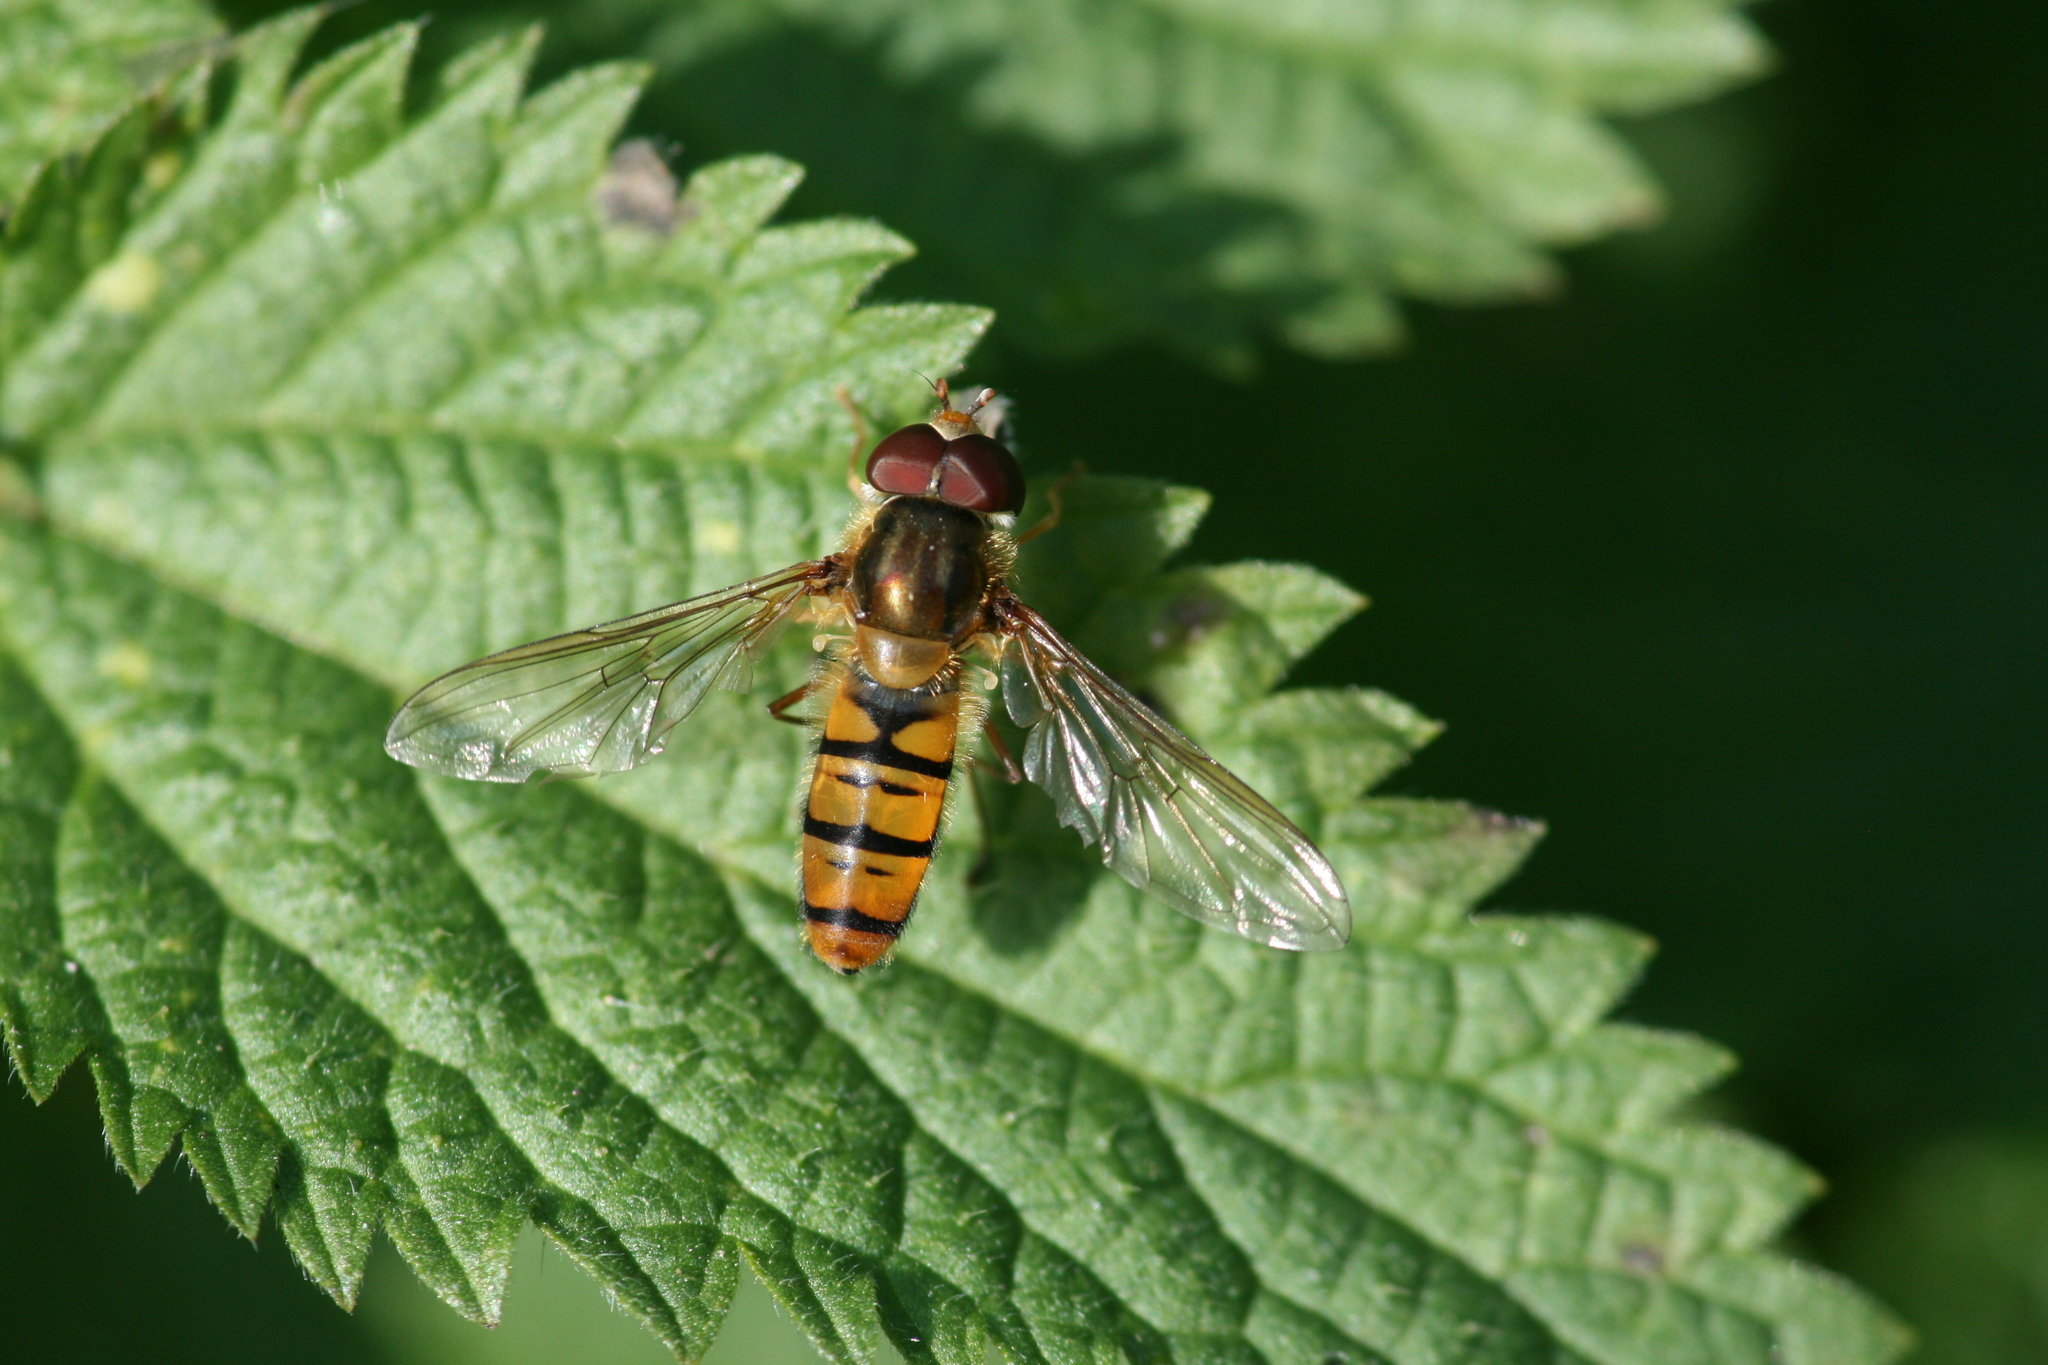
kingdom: Animalia
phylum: Arthropoda
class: Insecta
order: Diptera
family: Syrphidae
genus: Episyrphus
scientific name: Episyrphus balteatus
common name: Marmalade hoverfly
